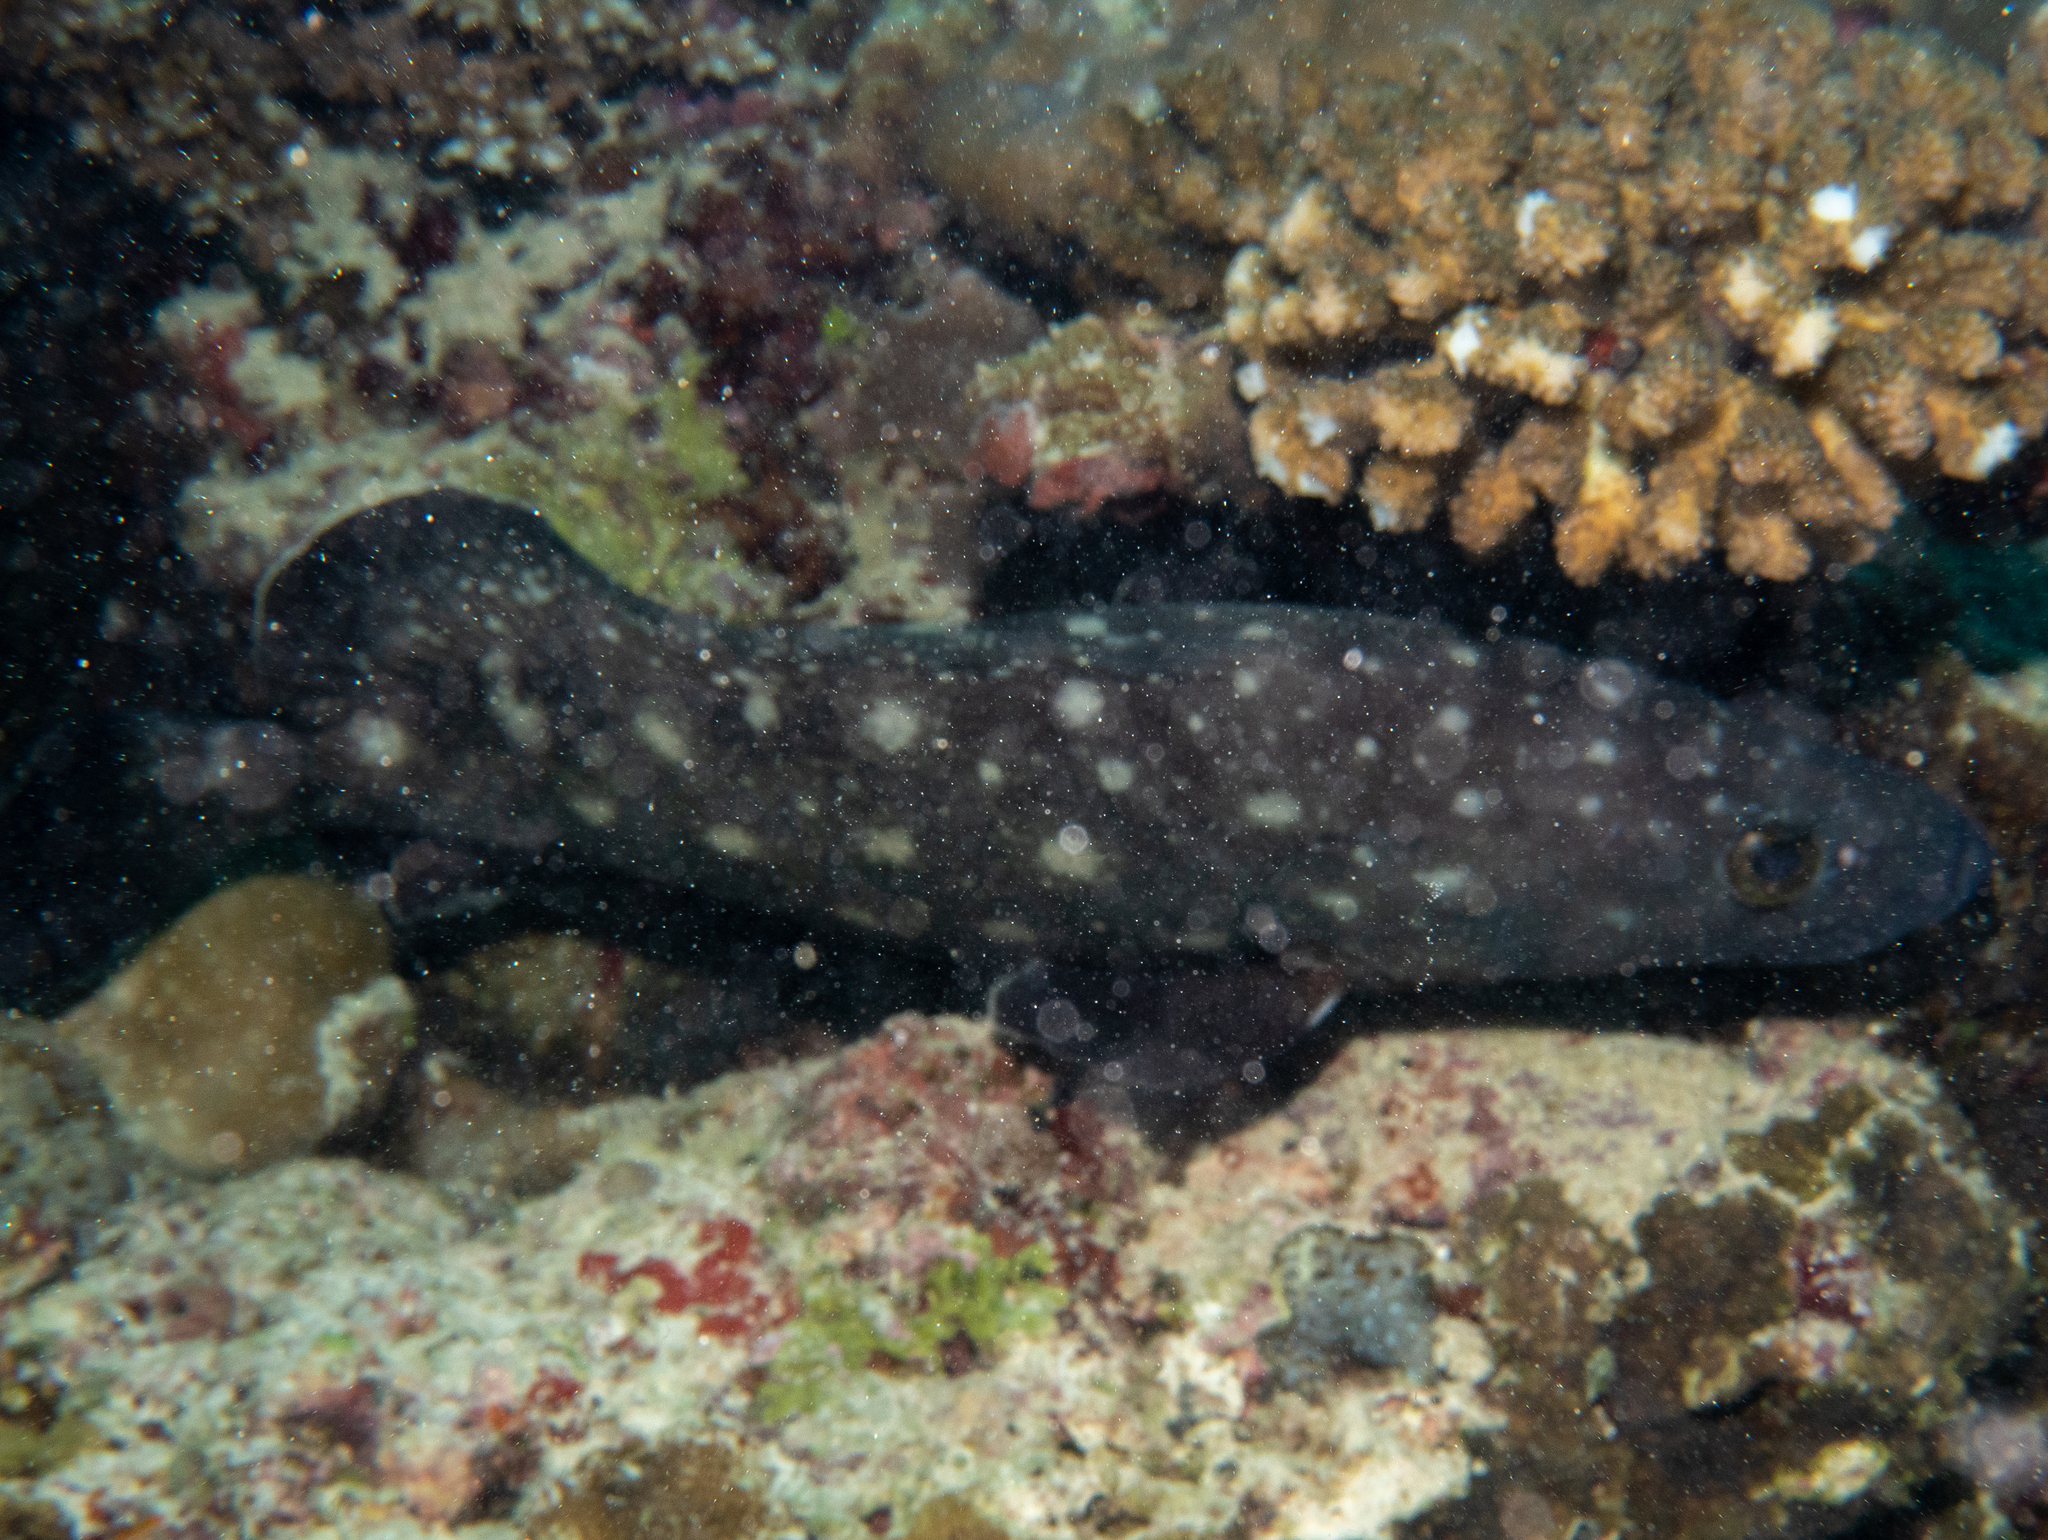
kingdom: Animalia
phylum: Chordata
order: Perciformes
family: Serranidae
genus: Epinephelus
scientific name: Epinephelus coeruleopunctatus
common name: Whitespotted grouper
